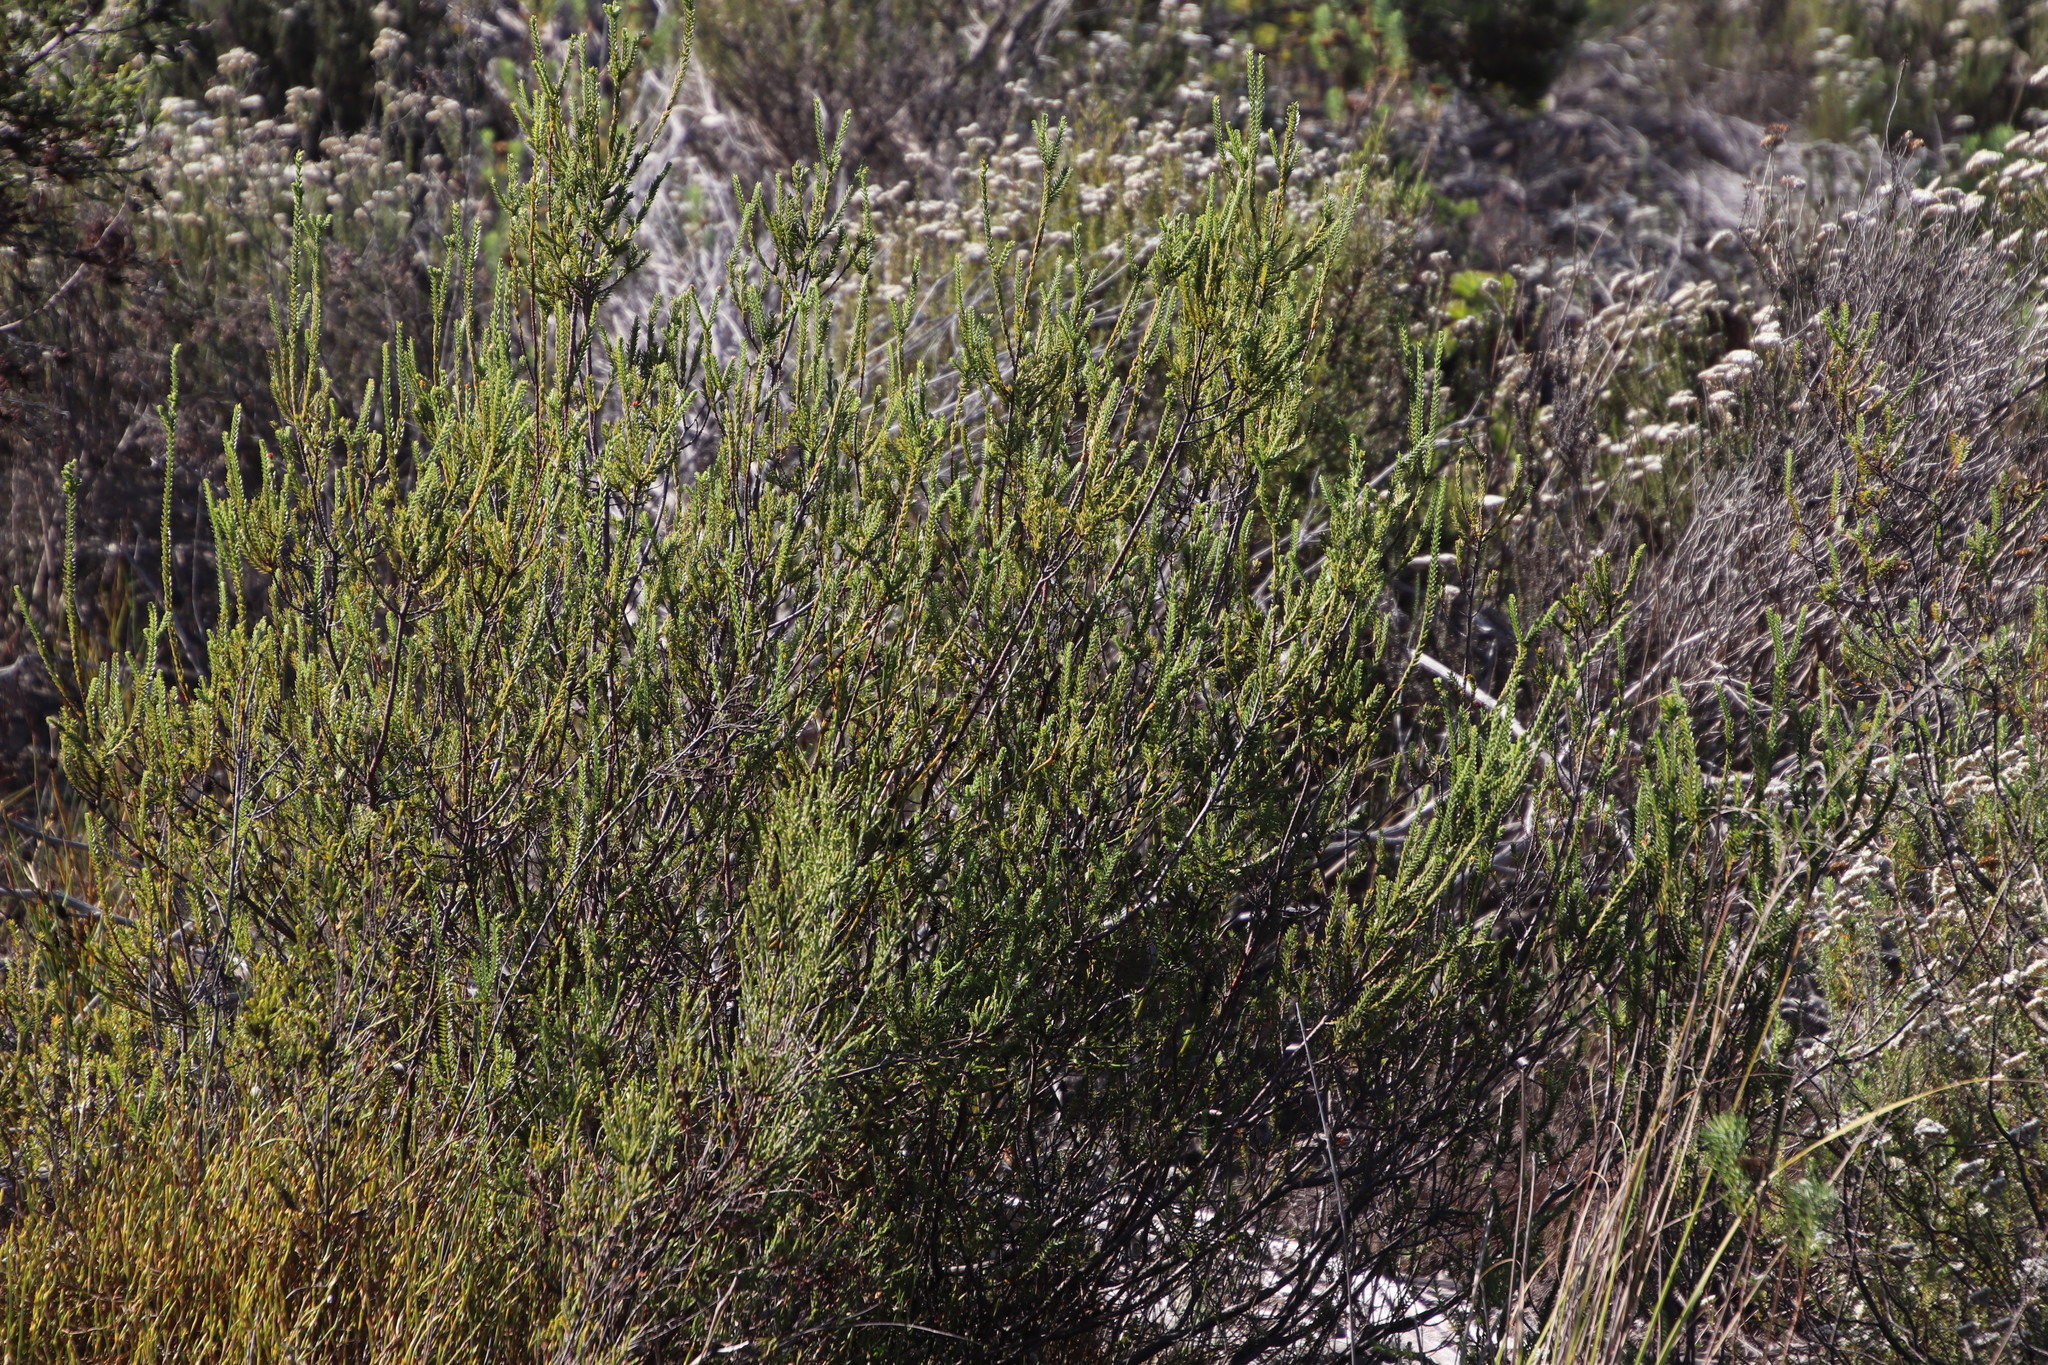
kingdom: Plantae
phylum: Tracheophyta
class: Magnoliopsida
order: Malvales
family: Thymelaeaceae
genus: Passerina
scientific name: Passerina corymbosa
